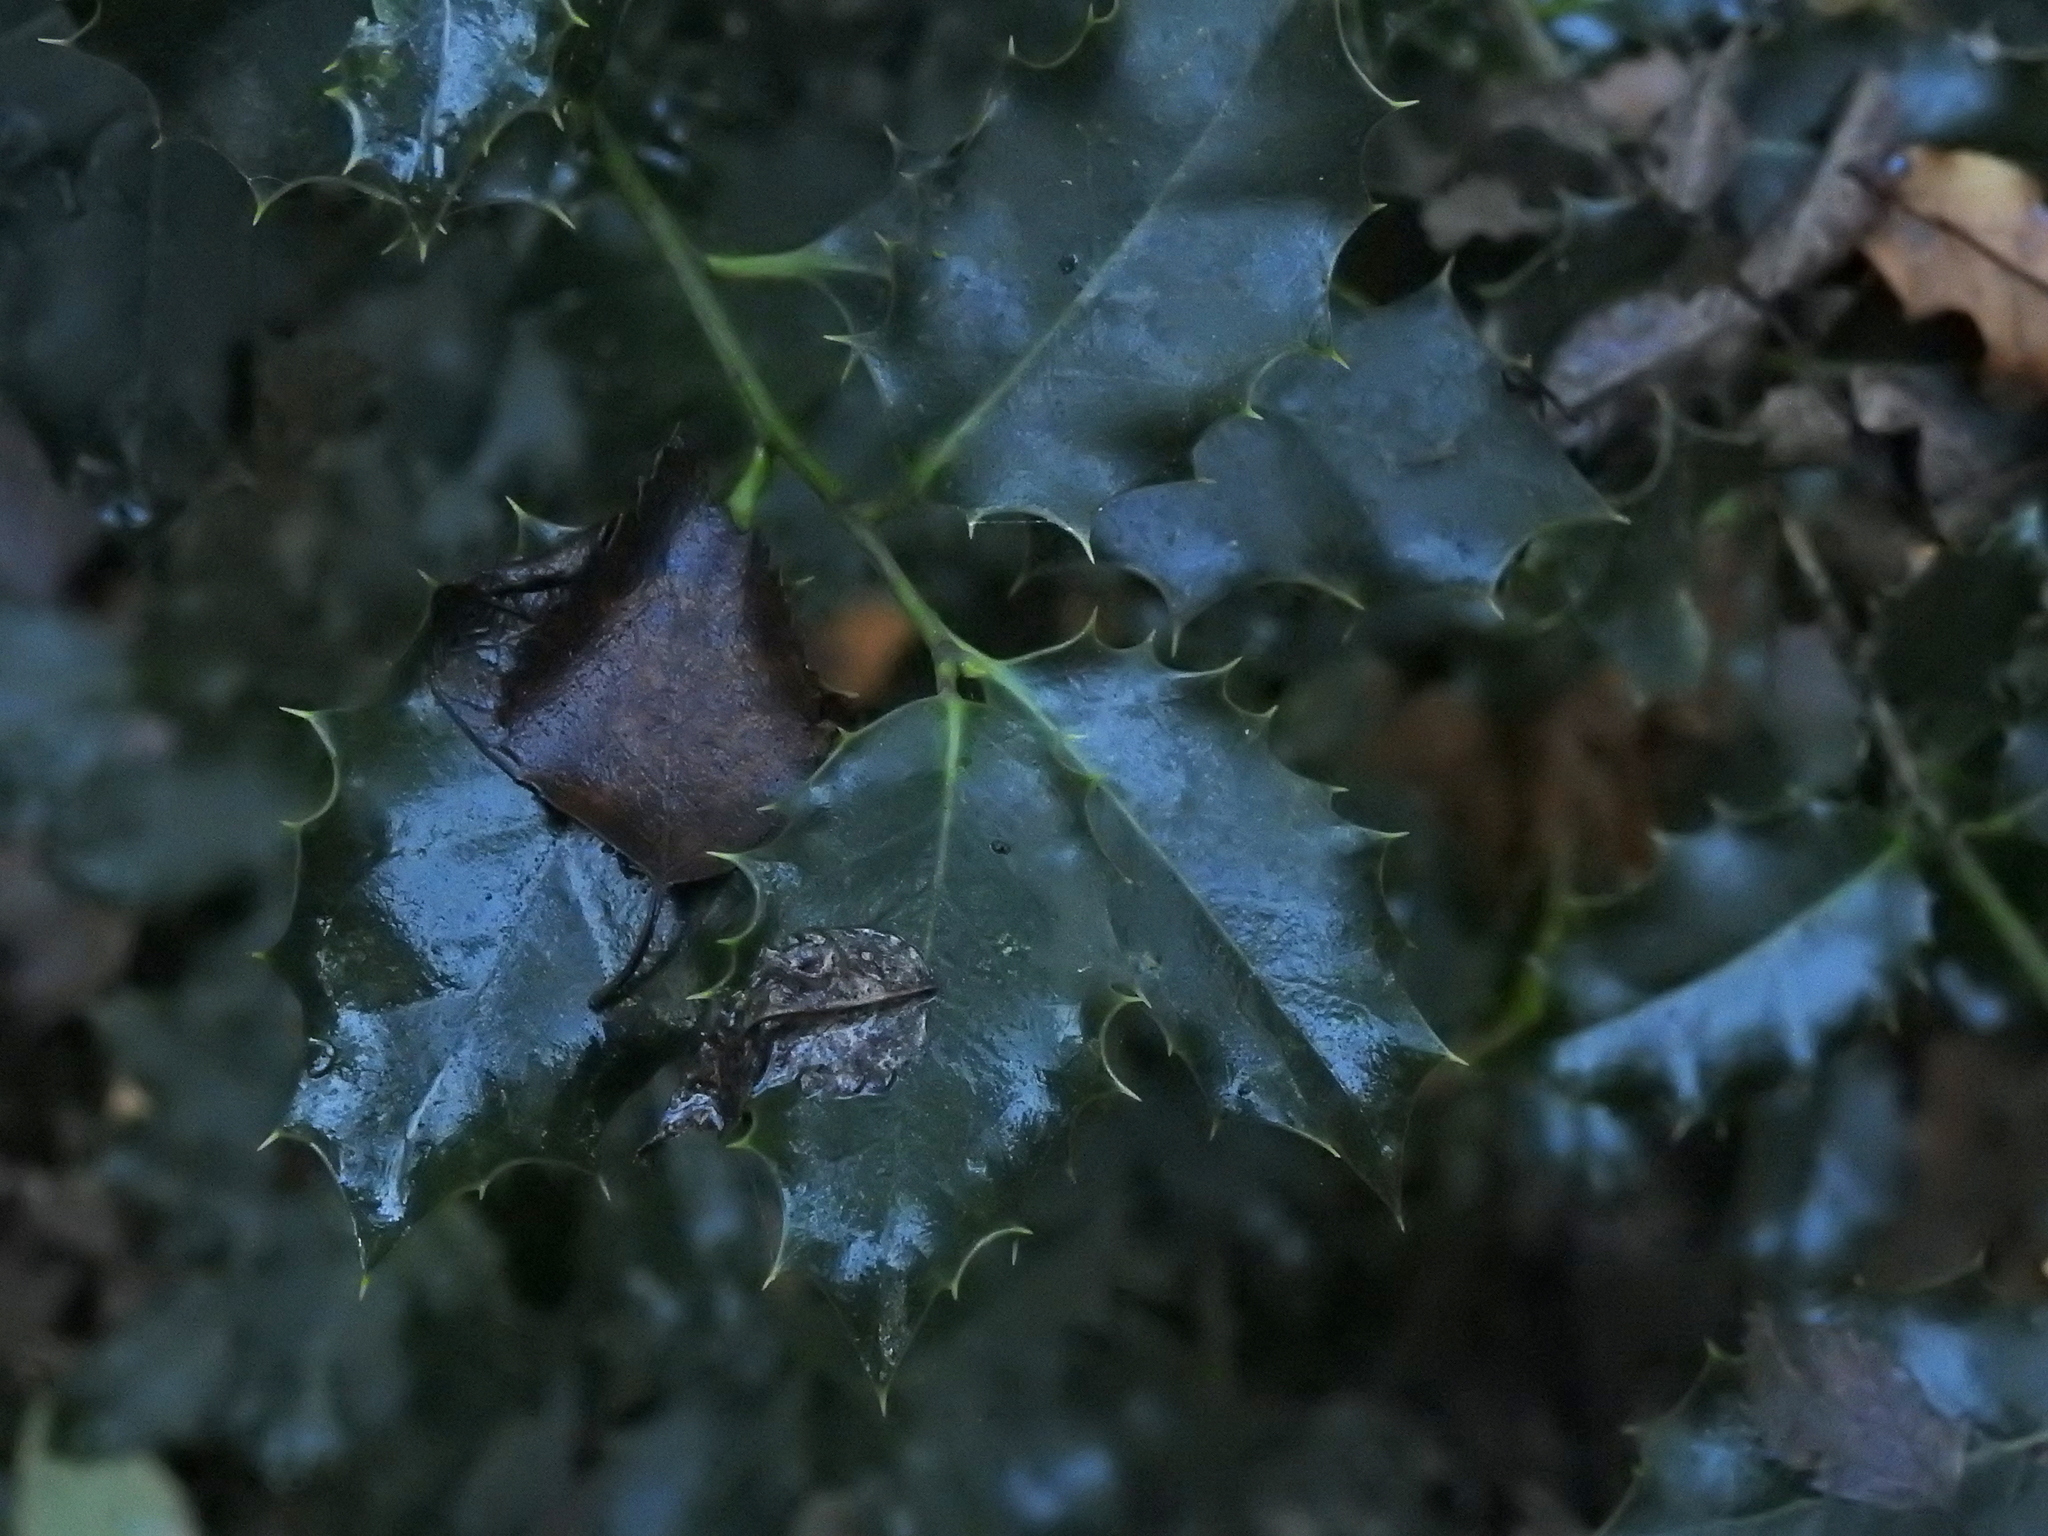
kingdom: Plantae
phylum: Tracheophyta
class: Magnoliopsida
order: Aquifoliales
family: Aquifoliaceae
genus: Ilex
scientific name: Ilex aquifolium
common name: English holly
